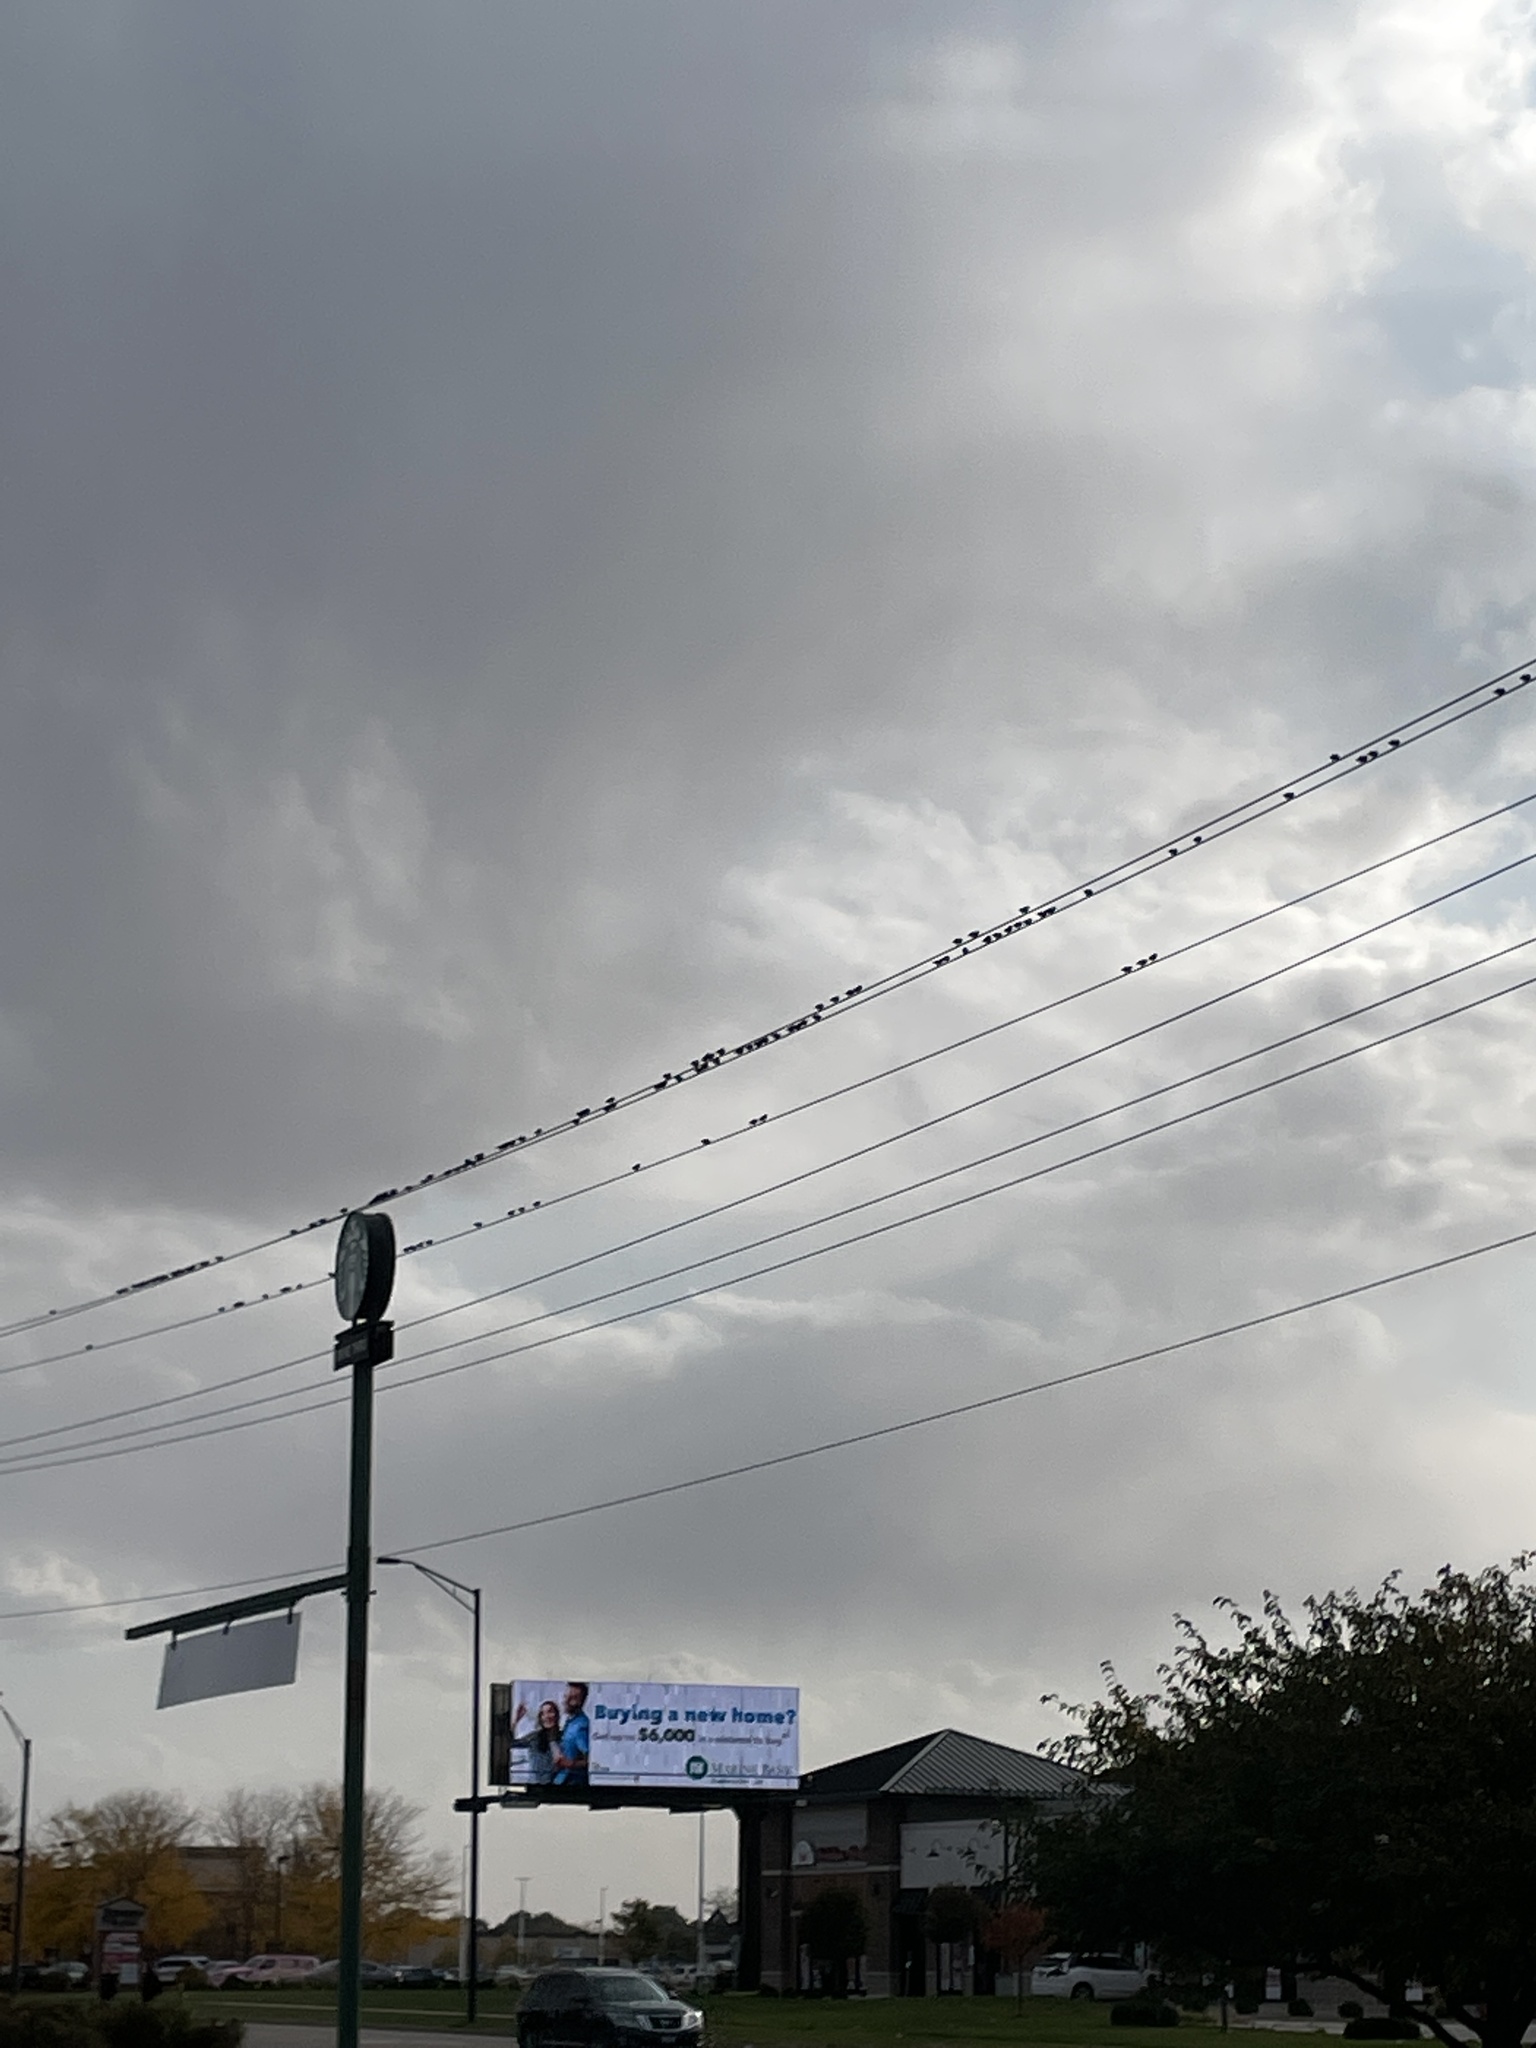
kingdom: Animalia
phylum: Chordata
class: Aves
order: Passeriformes
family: Sturnidae
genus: Sturnus
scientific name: Sturnus vulgaris
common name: Common starling
